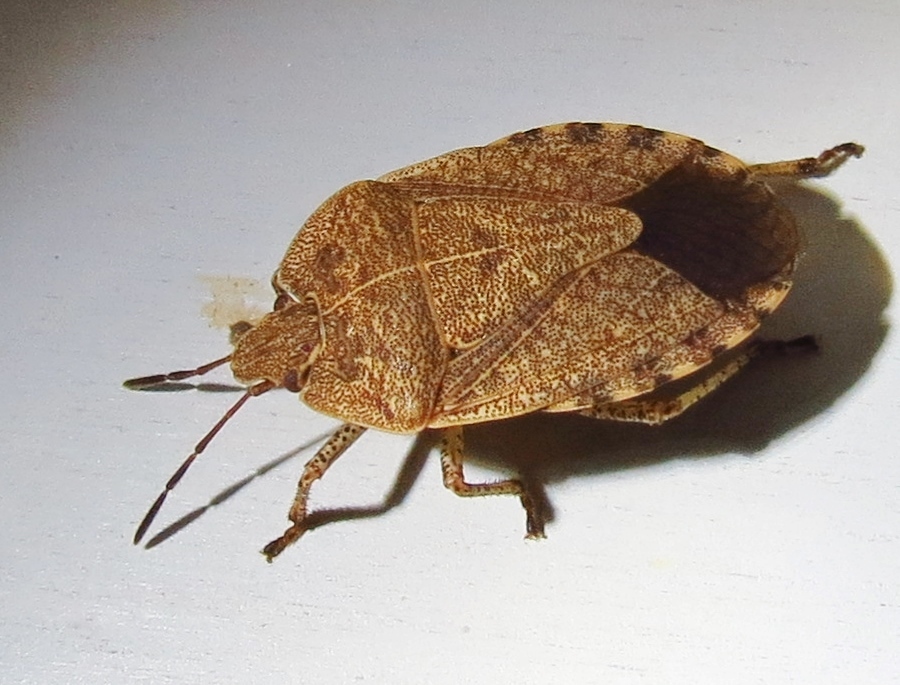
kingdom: Animalia
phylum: Arthropoda
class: Insecta
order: Hemiptera
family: Pentatomidae
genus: Menecles
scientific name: Menecles insertus
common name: Elf shoe stink bug
